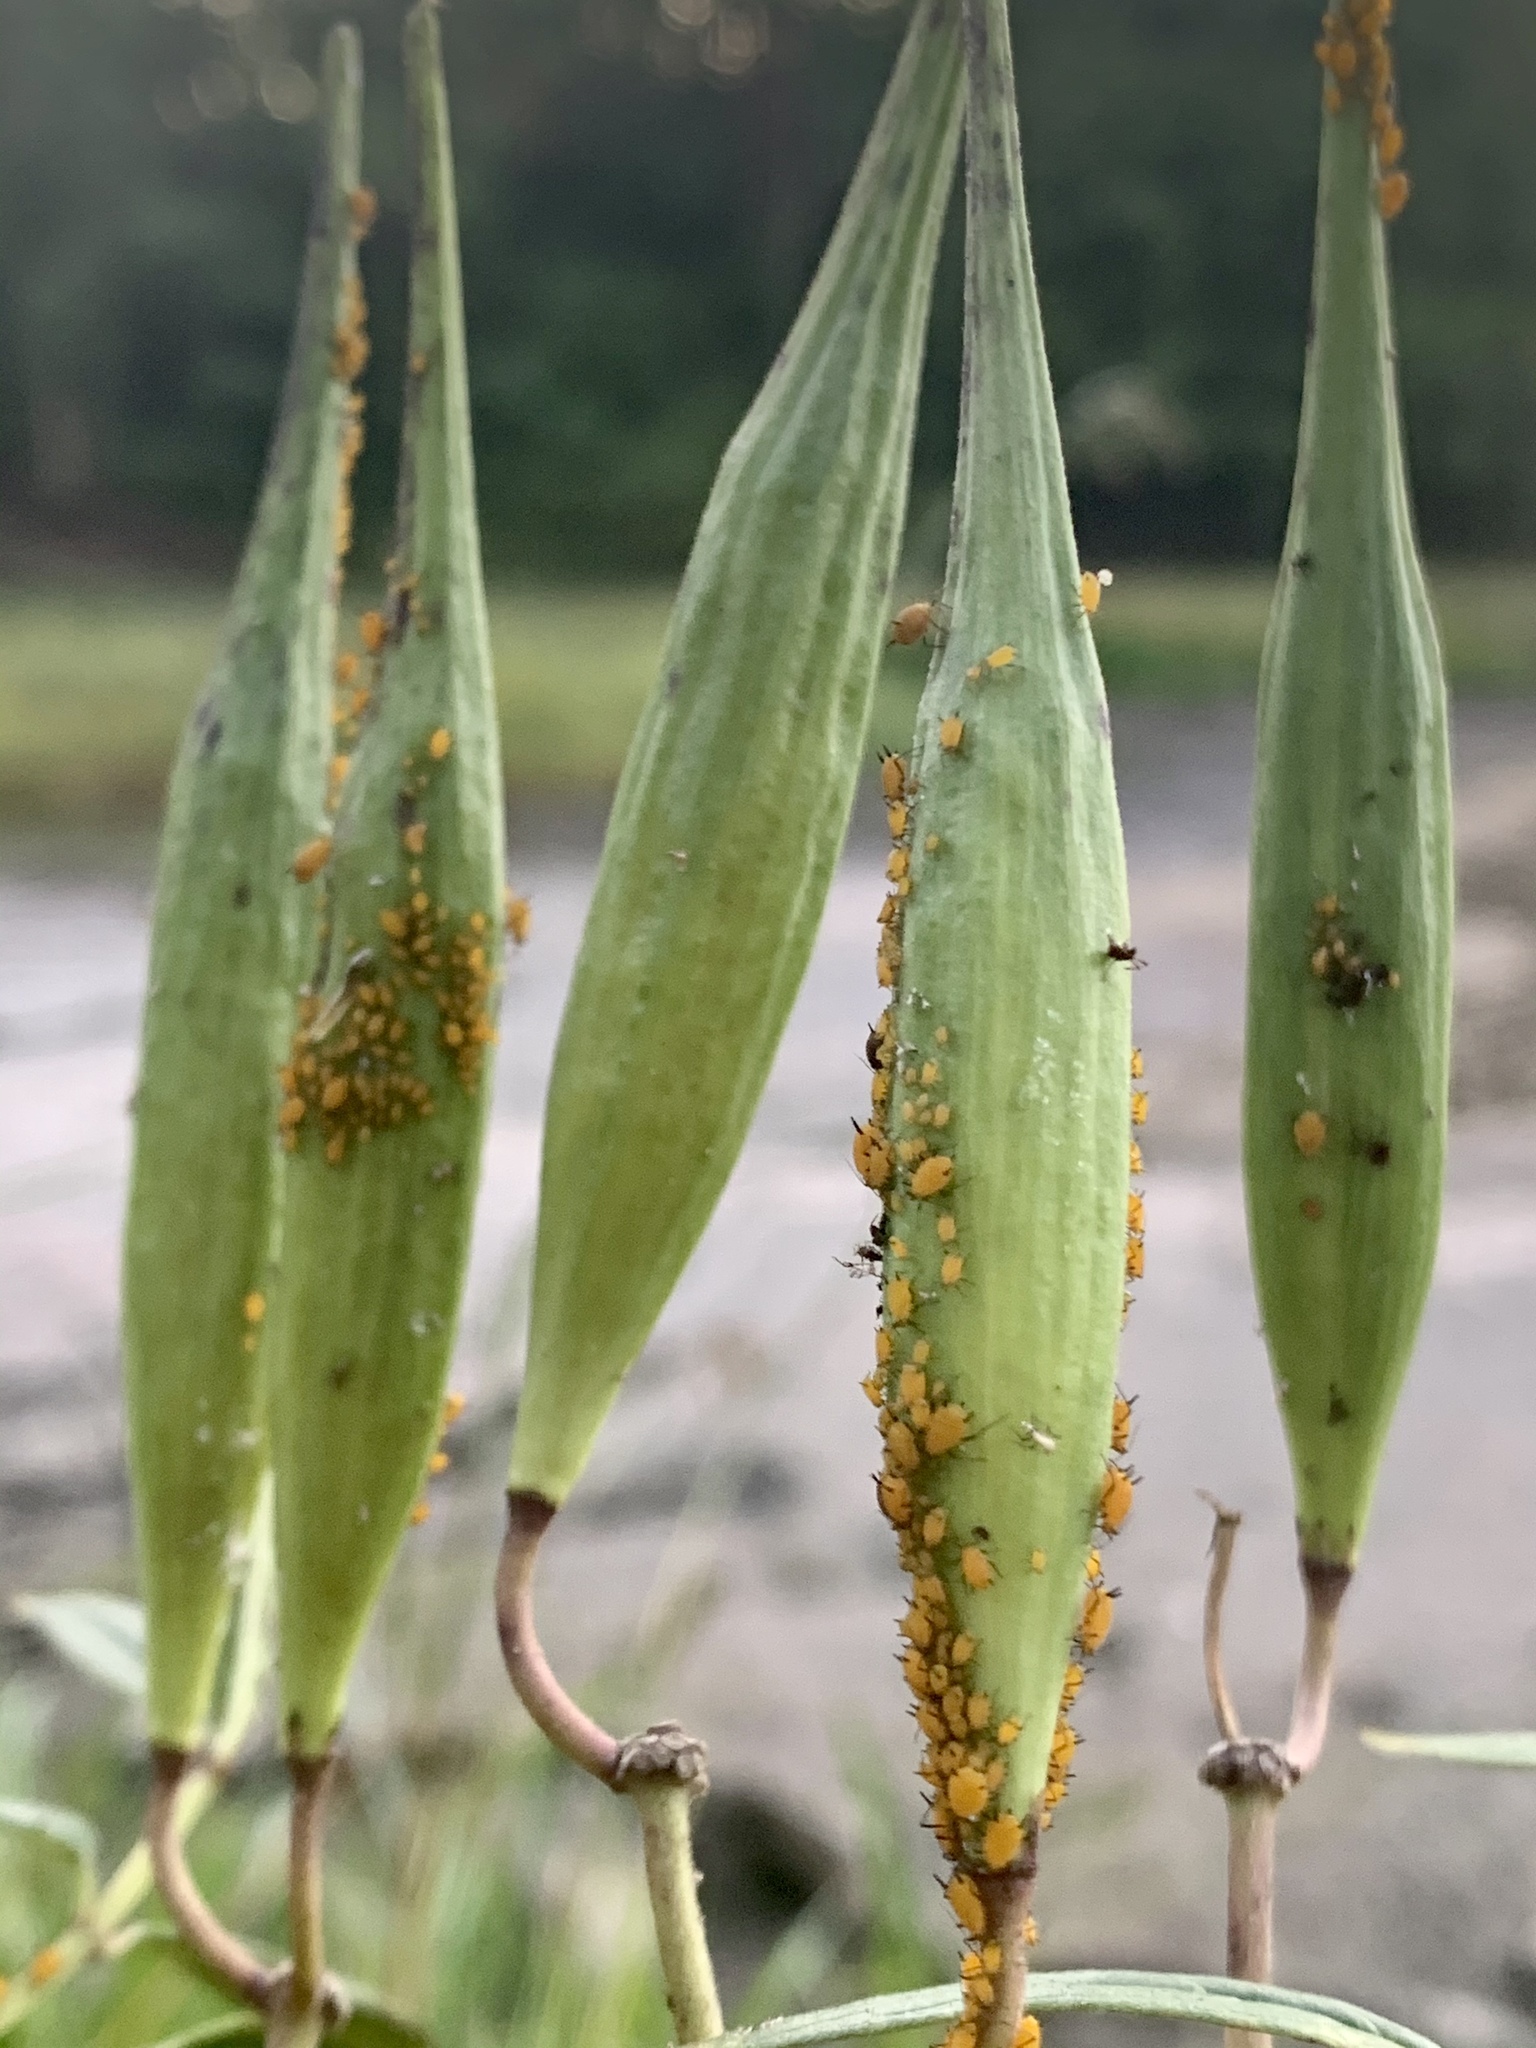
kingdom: Animalia
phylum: Arthropoda
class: Insecta
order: Hemiptera
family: Aphididae
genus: Aphis
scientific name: Aphis nerii
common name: Oleander aphid
